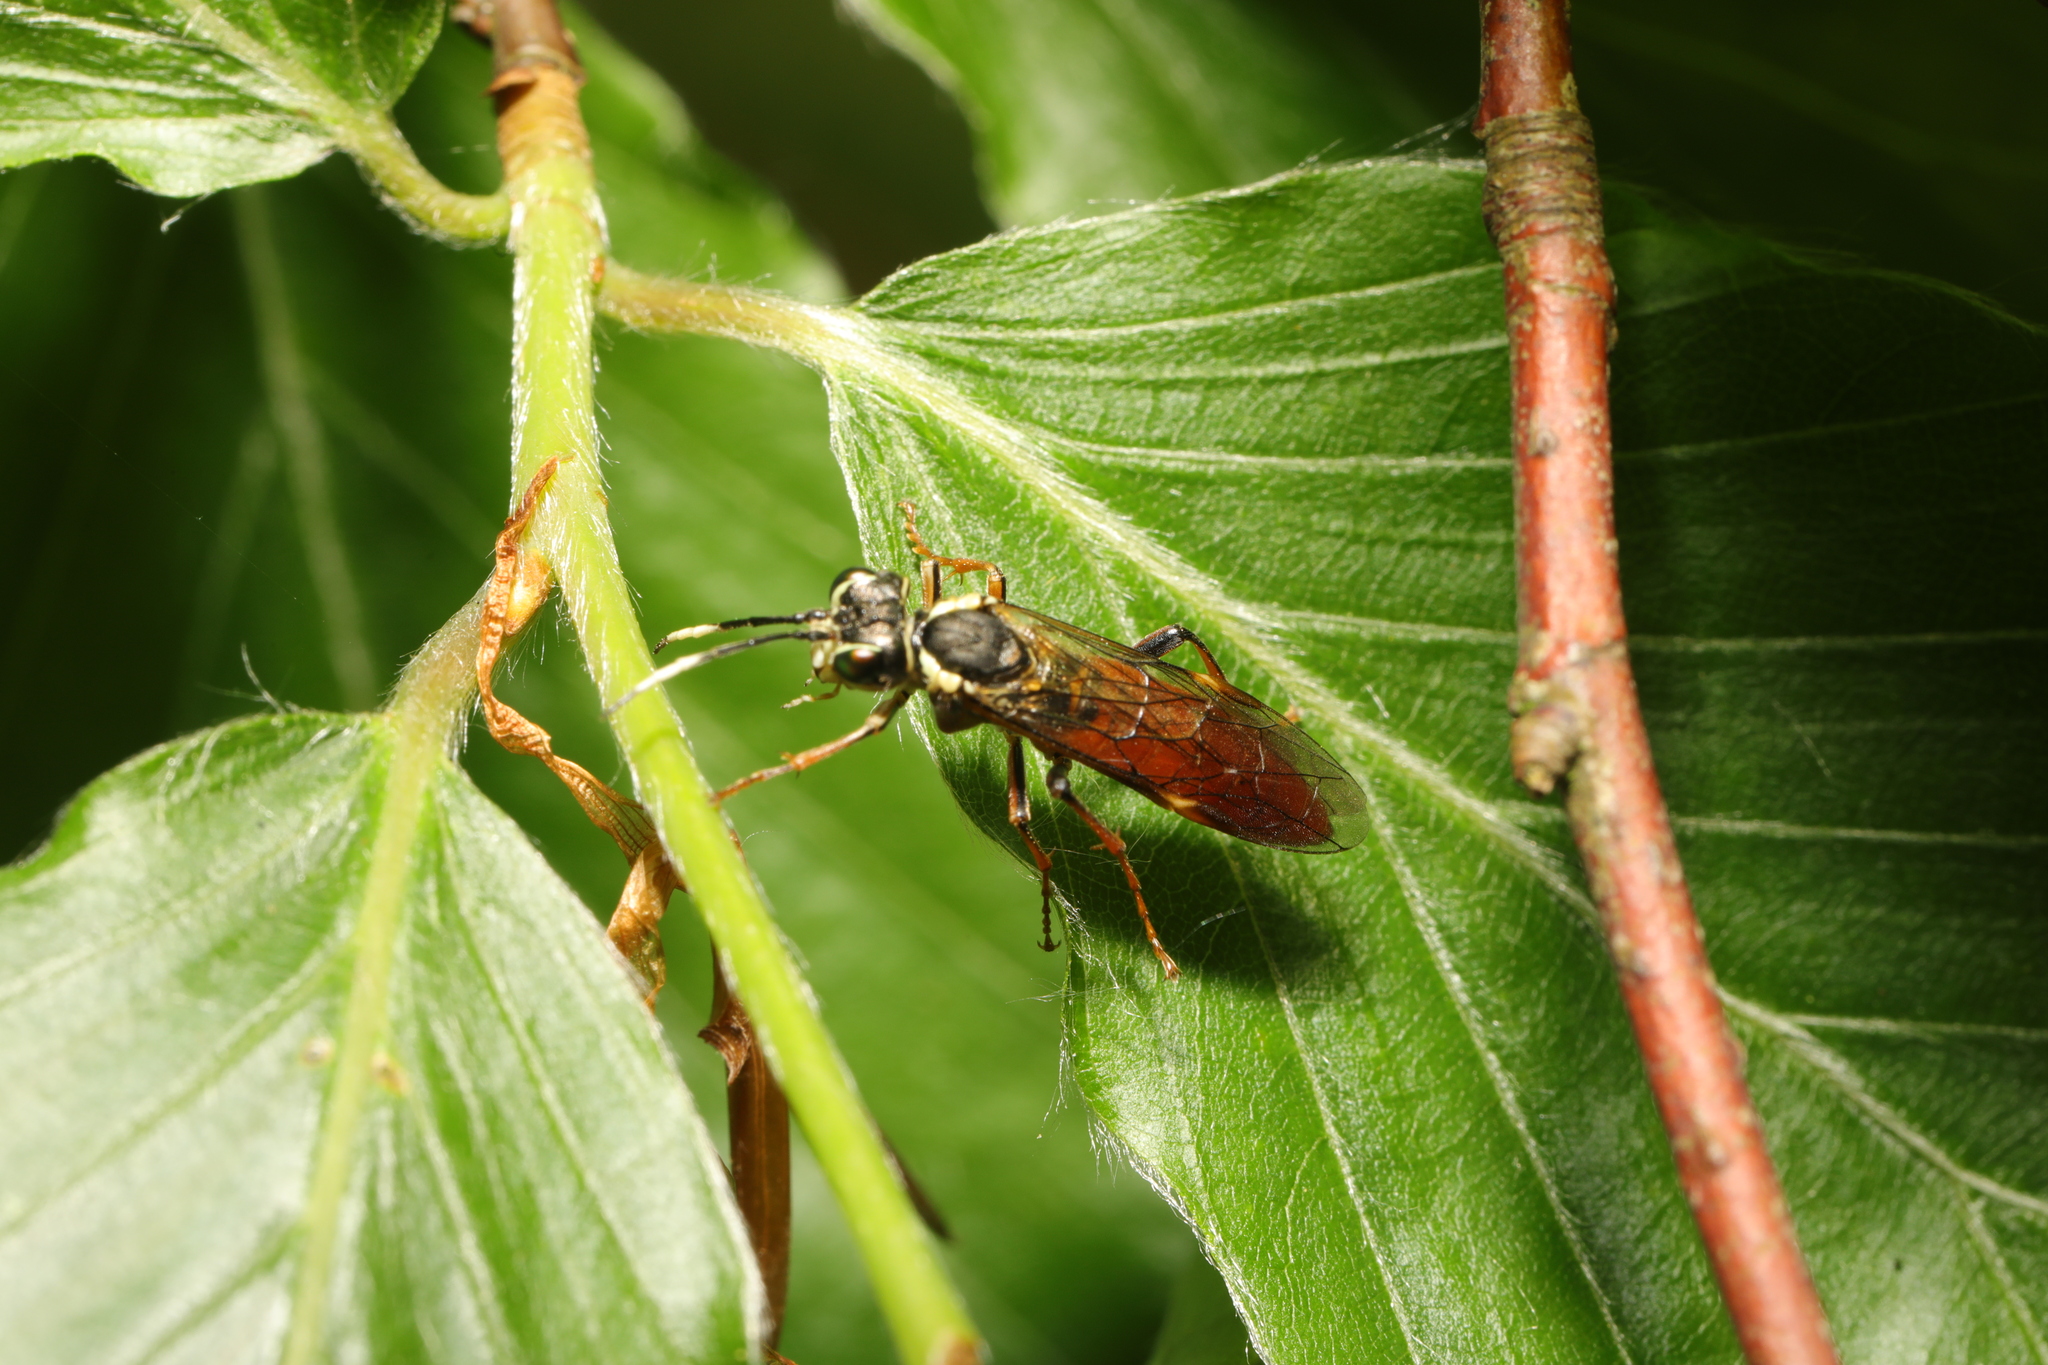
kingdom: Animalia
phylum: Arthropoda
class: Insecta
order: Hymenoptera
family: Tenthredinidae
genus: Tenthredo
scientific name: Tenthredo ferruginea
